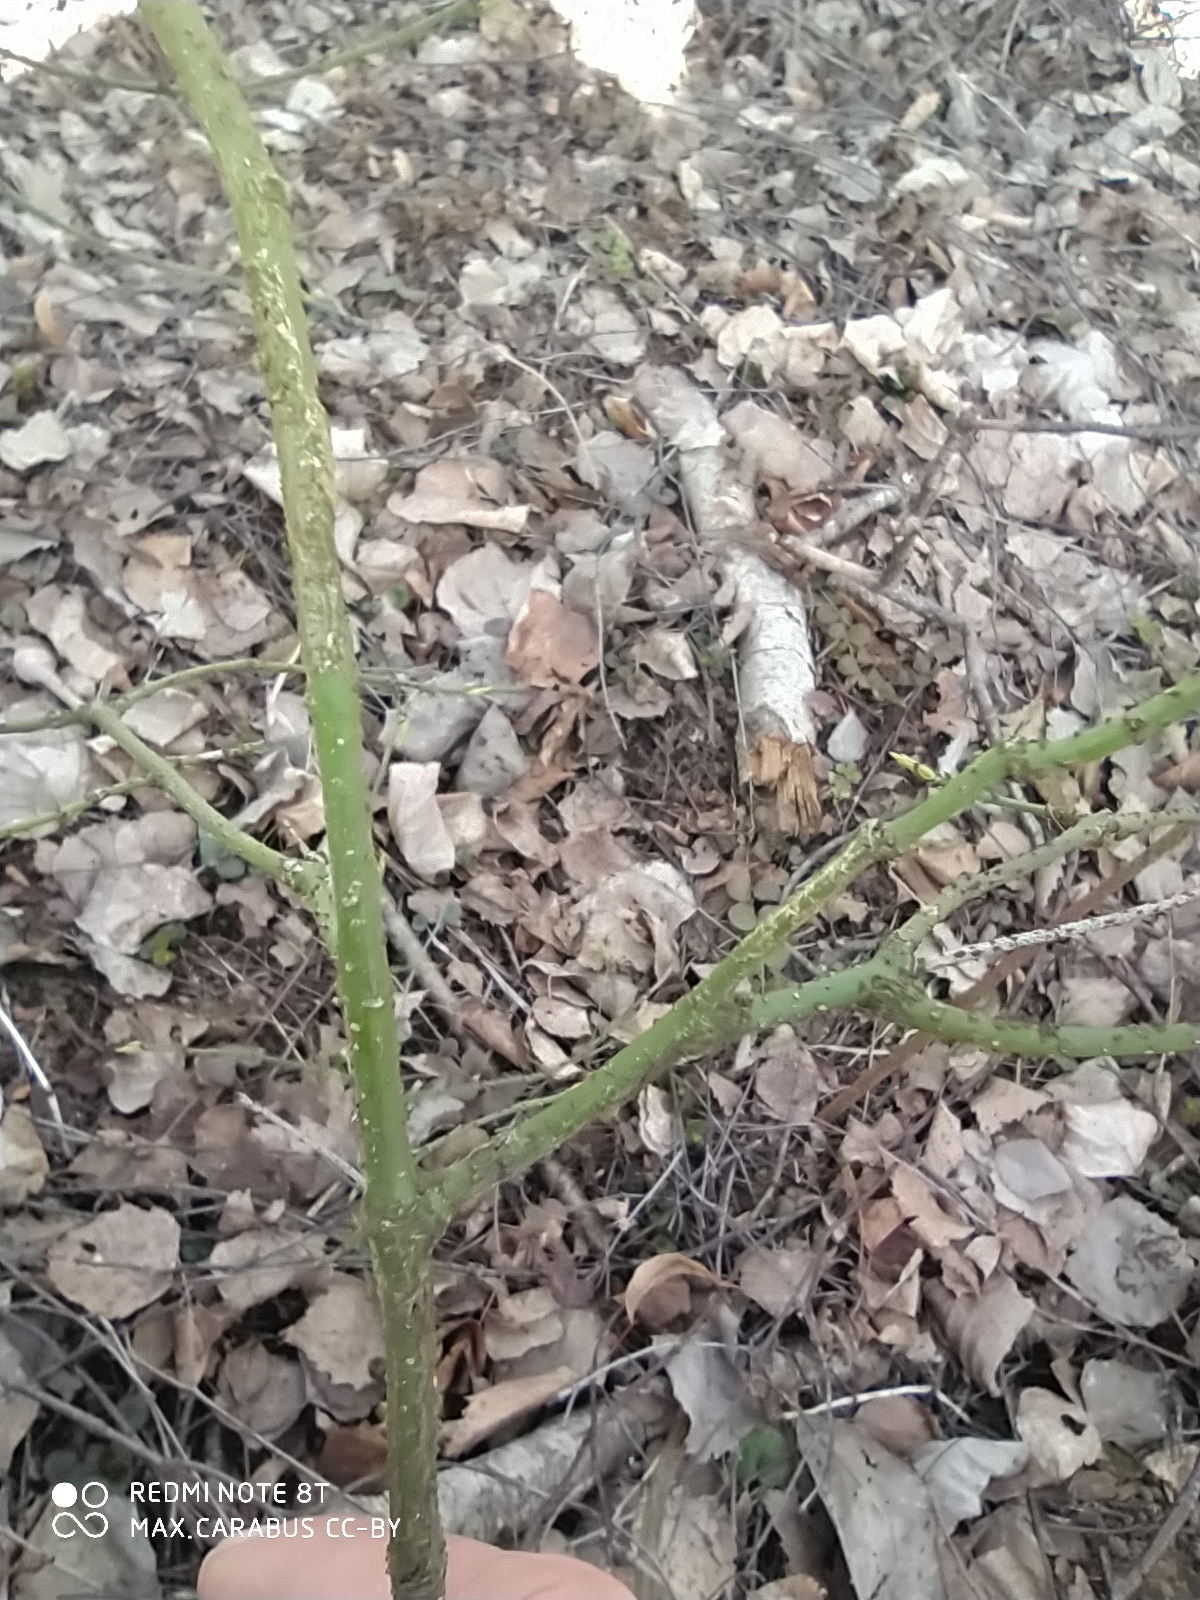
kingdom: Plantae
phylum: Tracheophyta
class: Magnoliopsida
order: Celastrales
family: Celastraceae
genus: Euonymus
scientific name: Euonymus verrucosus
